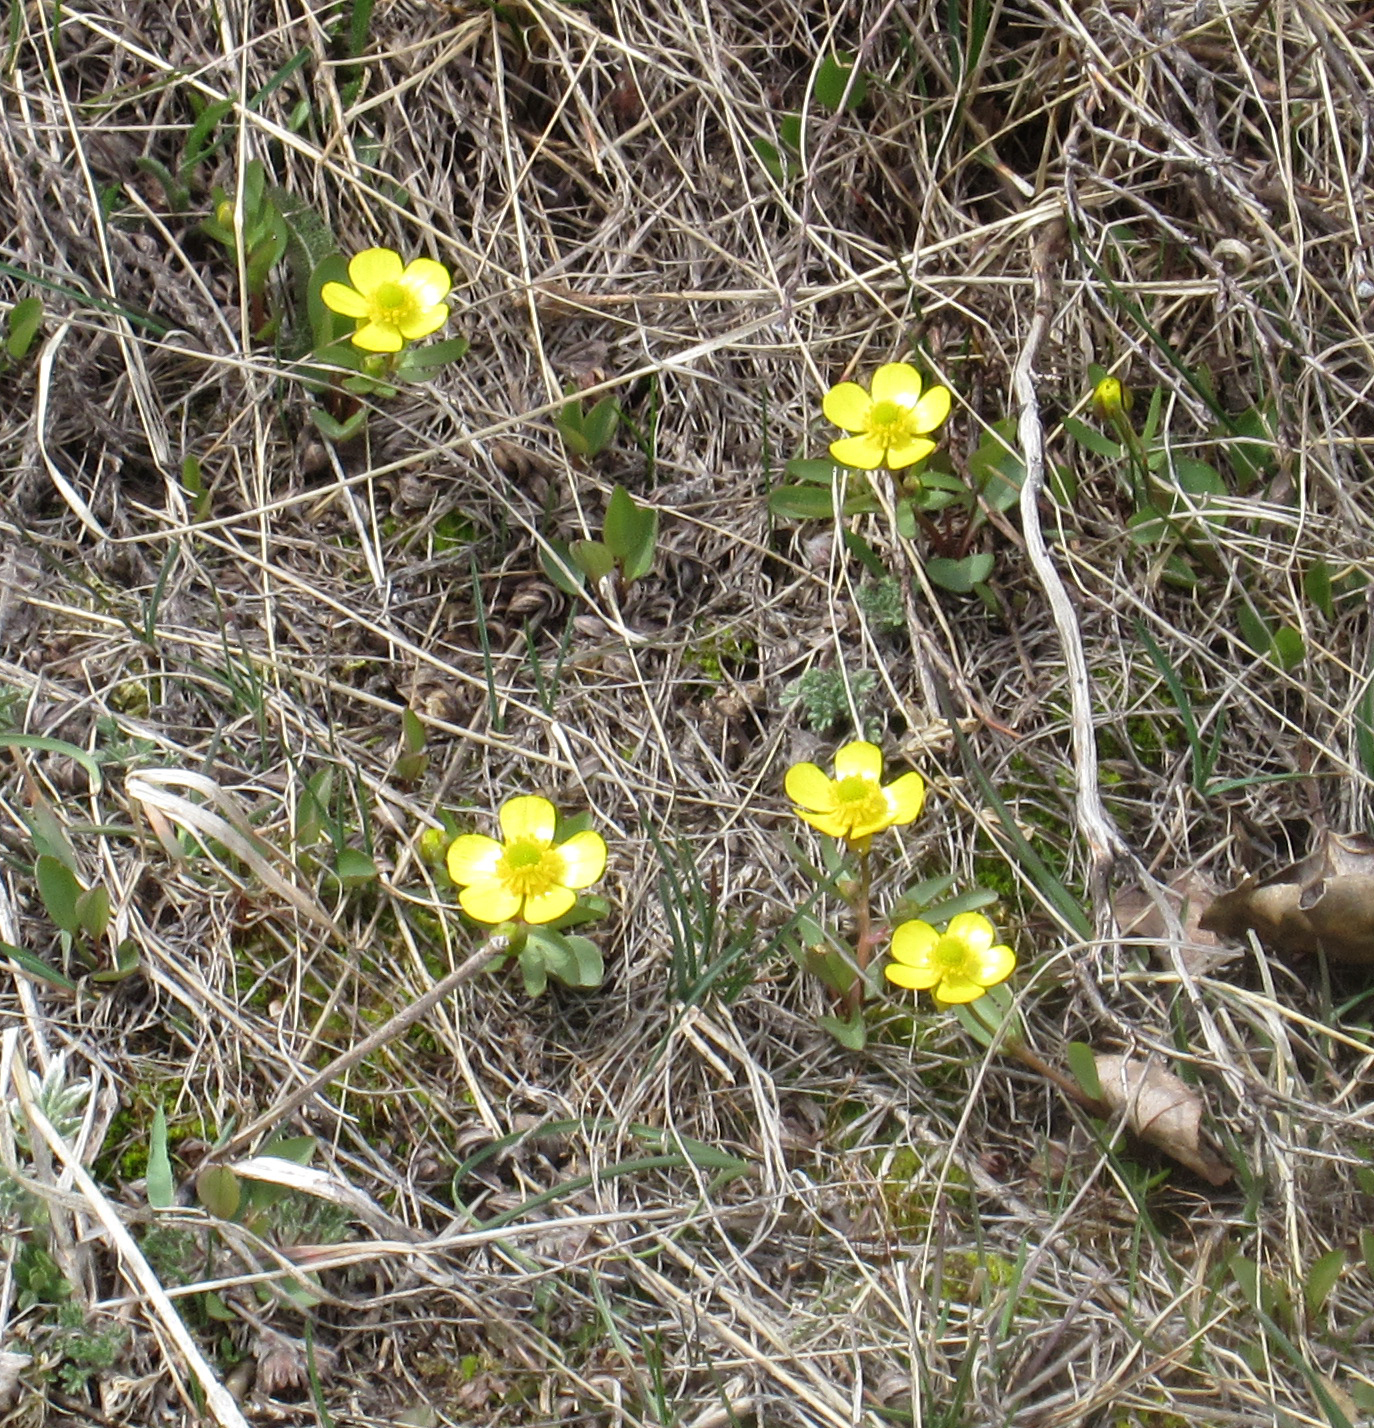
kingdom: Plantae
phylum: Tracheophyta
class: Magnoliopsida
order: Ranunculales
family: Ranunculaceae
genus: Ranunculus
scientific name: Ranunculus eschscholtzii
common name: Eschscholtz's buttercup
